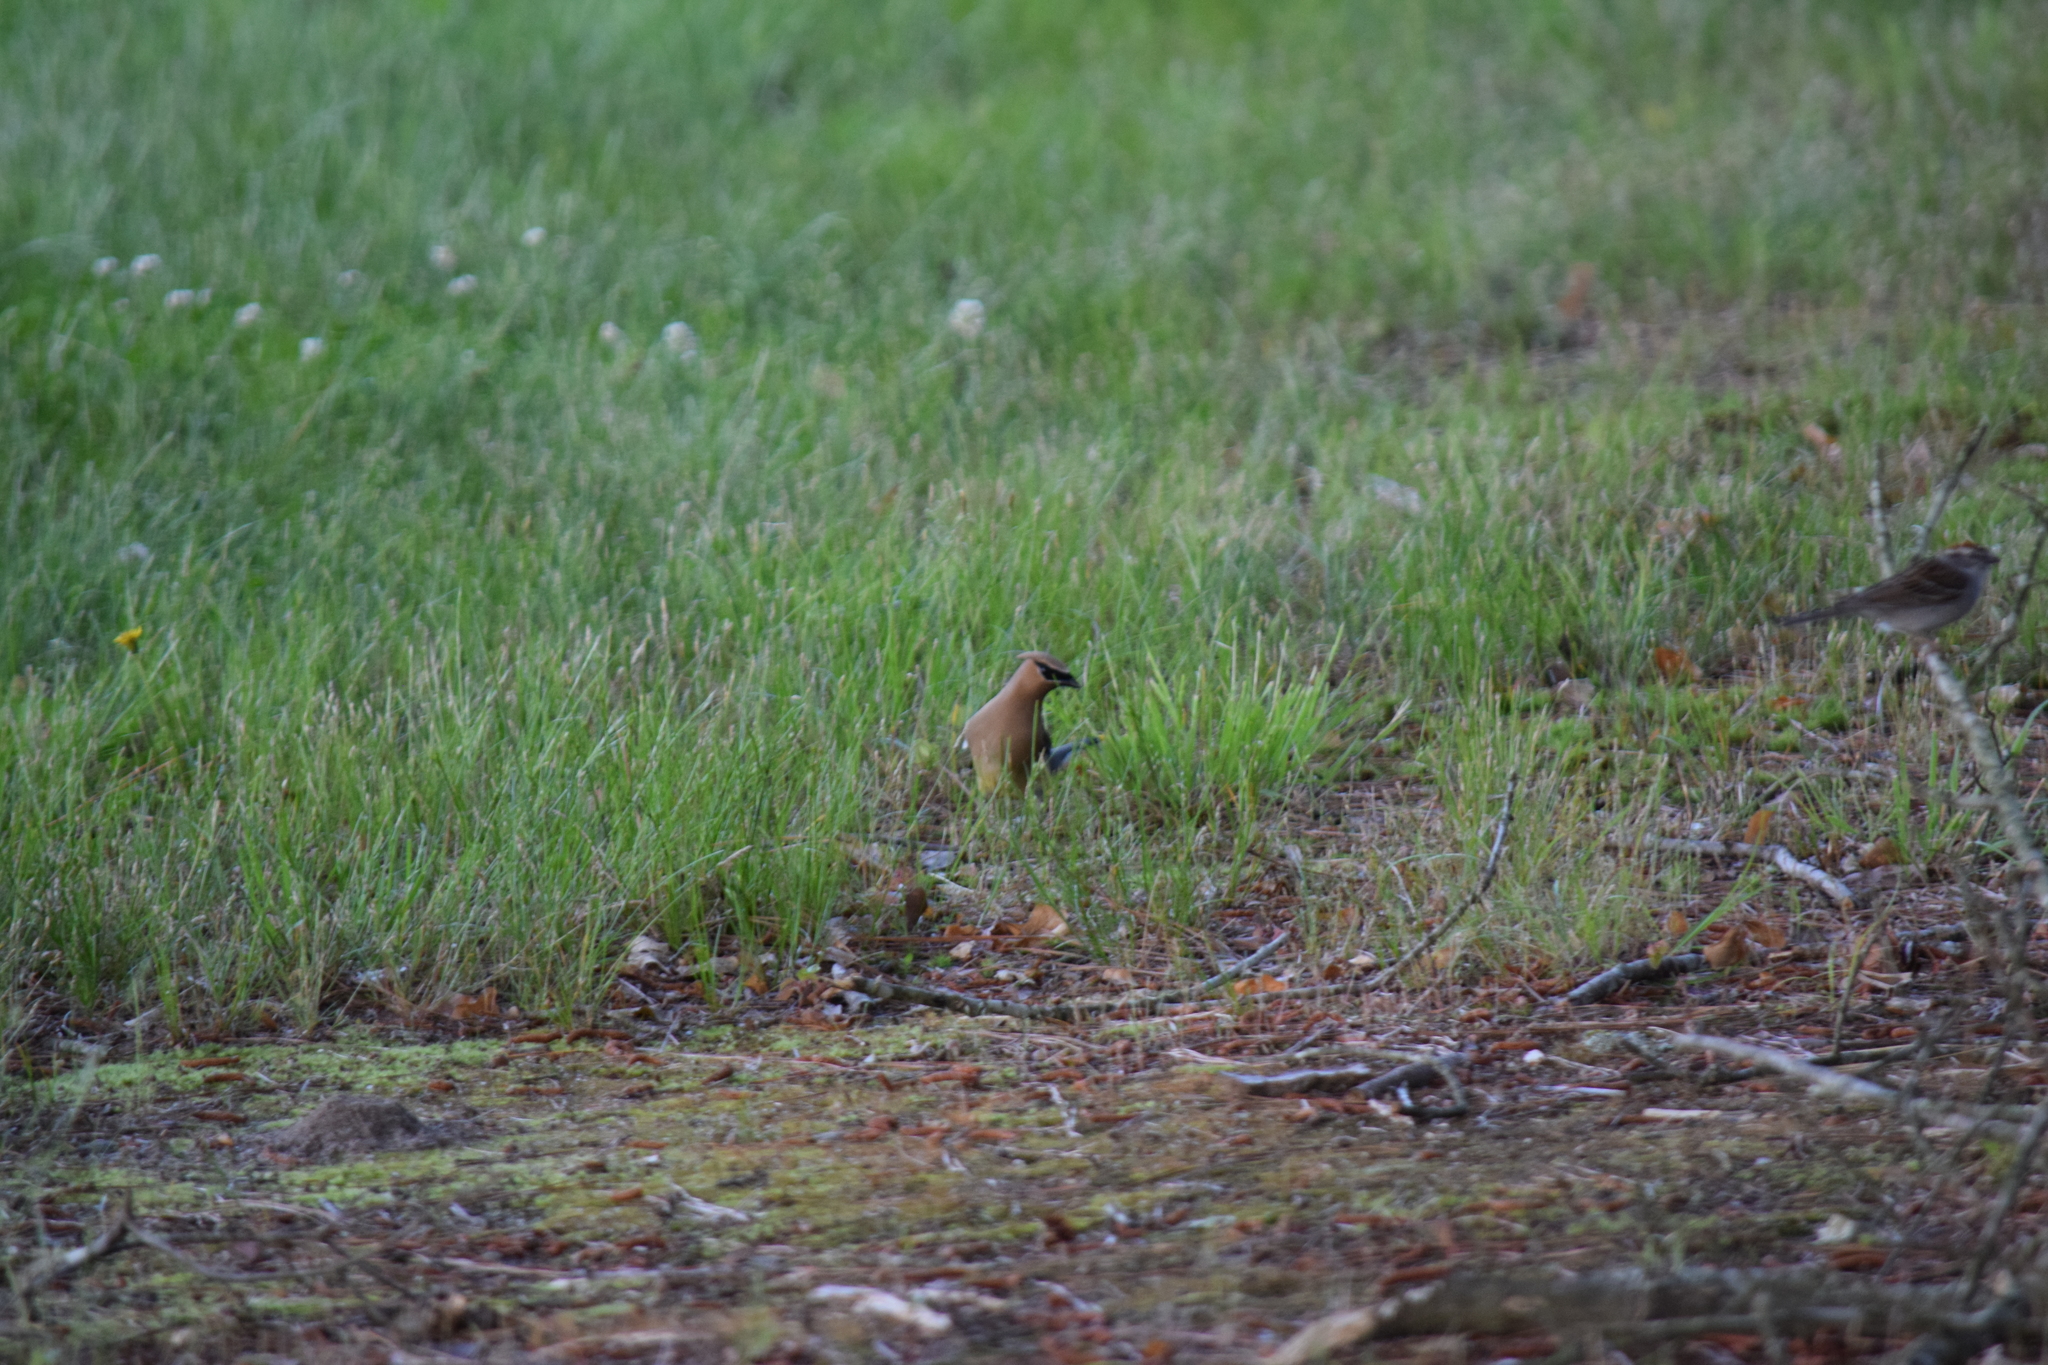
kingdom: Animalia
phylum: Chordata
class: Aves
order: Passeriformes
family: Bombycillidae
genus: Bombycilla
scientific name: Bombycilla cedrorum
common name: Cedar waxwing
